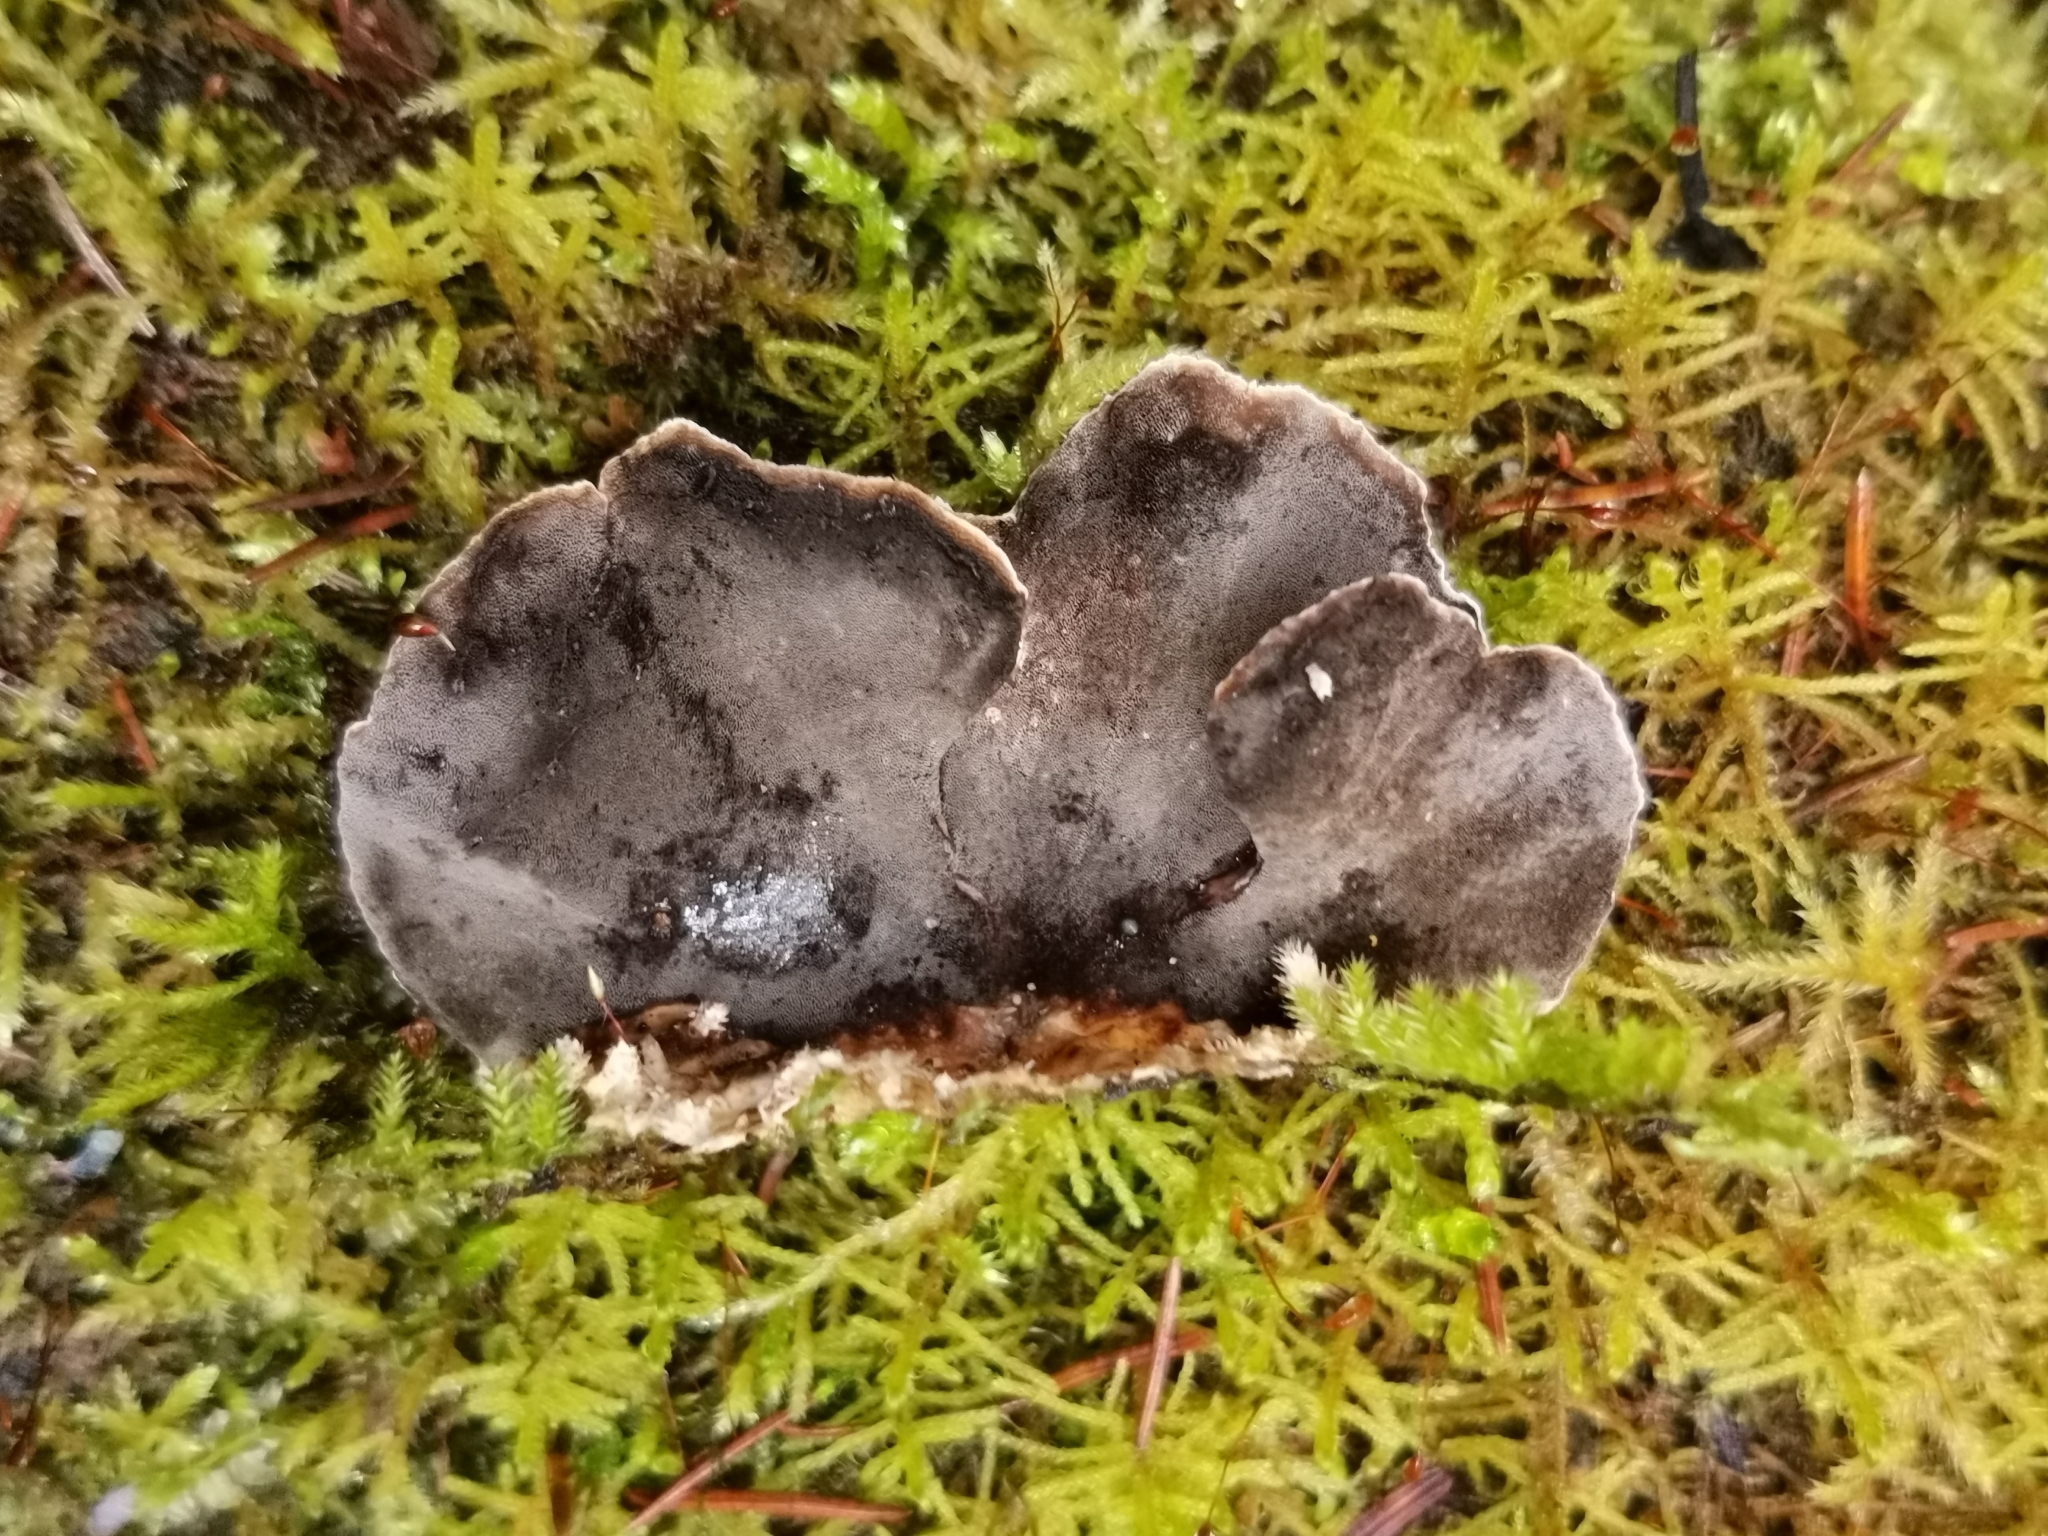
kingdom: Fungi
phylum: Basidiomycota
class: Agaricomycetes
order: Polyporales
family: Phanerochaetaceae
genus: Bjerkandera
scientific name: Bjerkandera adusta
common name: Smoky bracket
